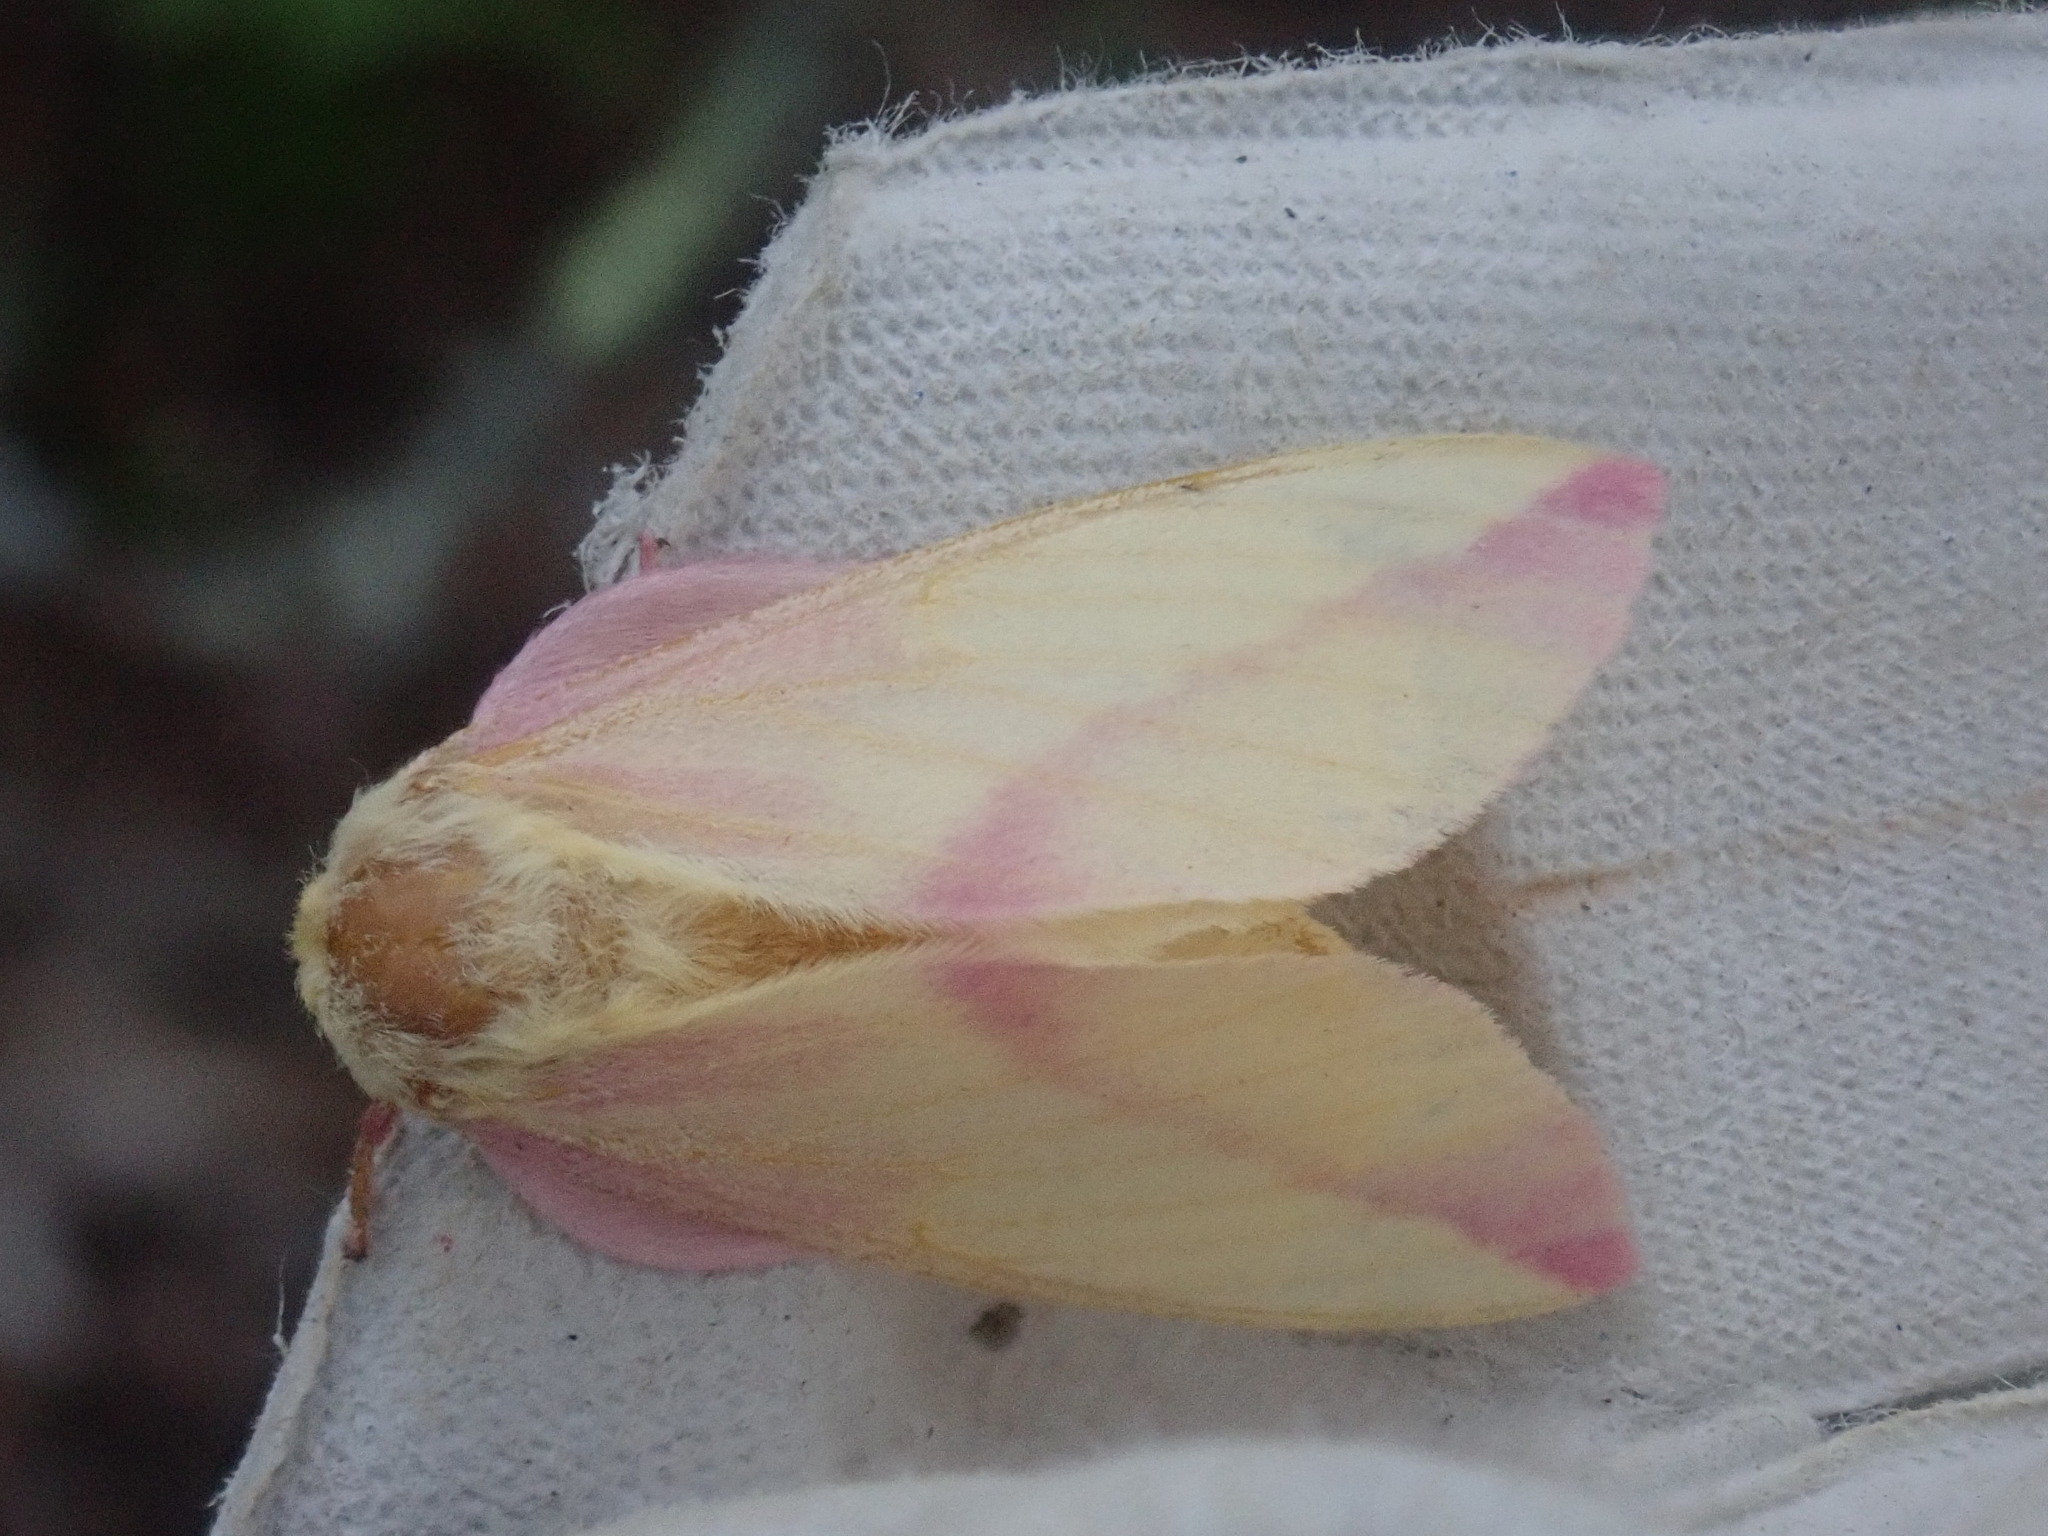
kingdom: Animalia
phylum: Arthropoda
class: Insecta
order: Lepidoptera
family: Saturniidae
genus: Dryocampa
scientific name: Dryocampa rubicunda
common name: Rosy maple moth
